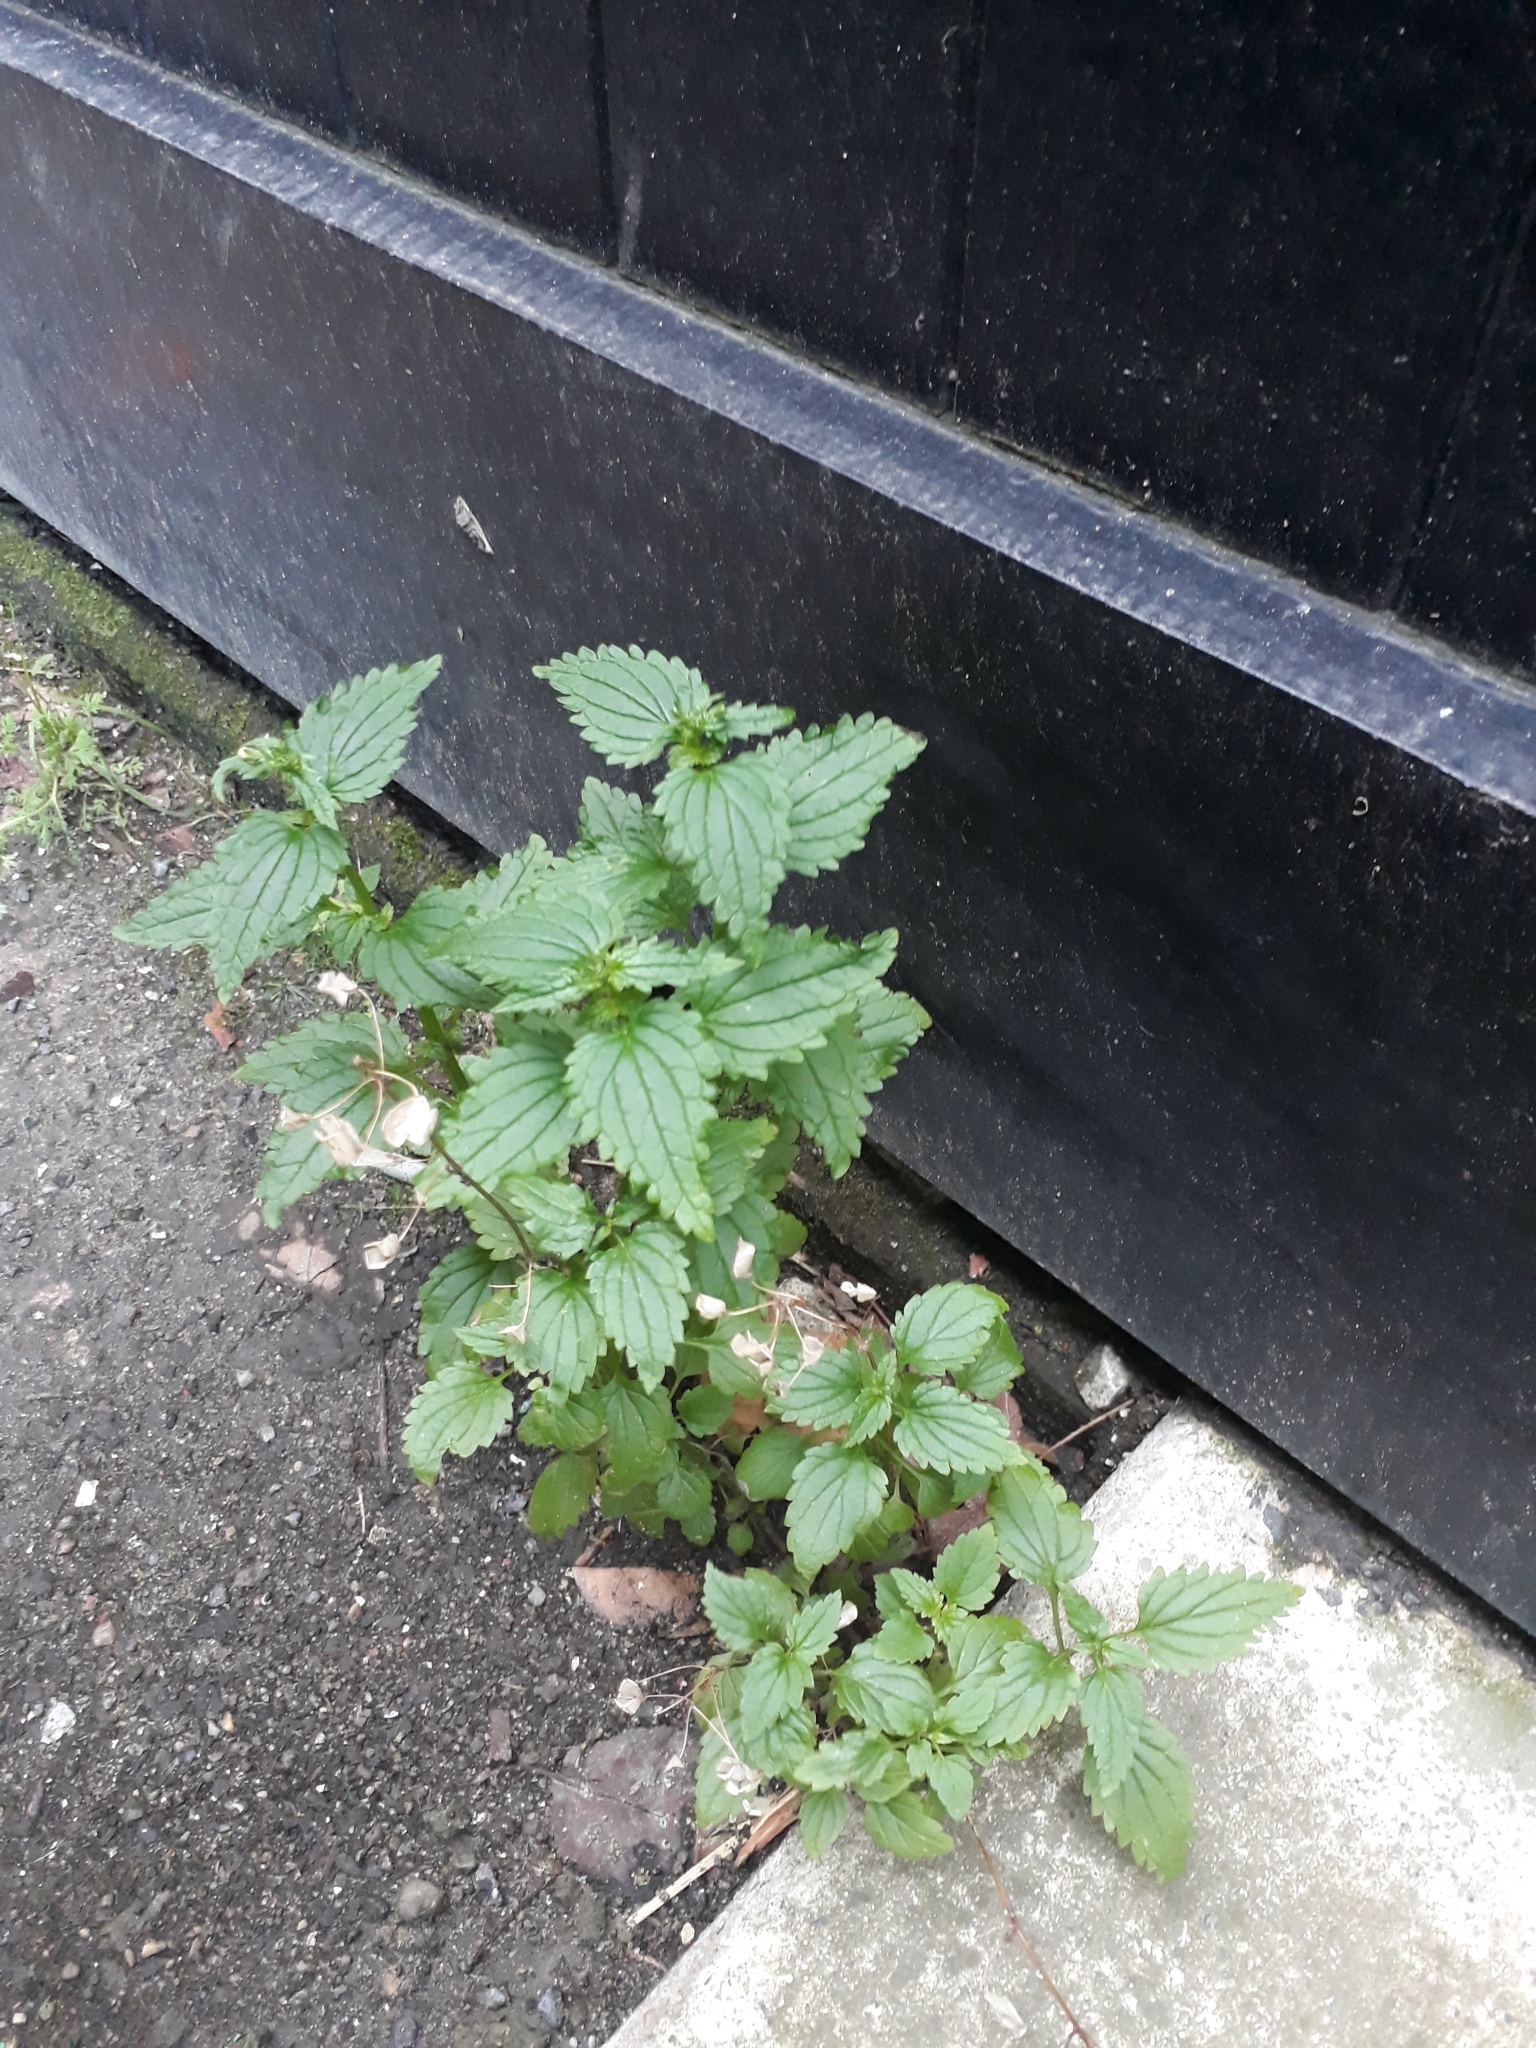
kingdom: Plantae
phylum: Tracheophyta
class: Magnoliopsida
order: Lamiales
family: Scrophulariaceae
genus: Nemesia
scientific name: Nemesia floribunda
